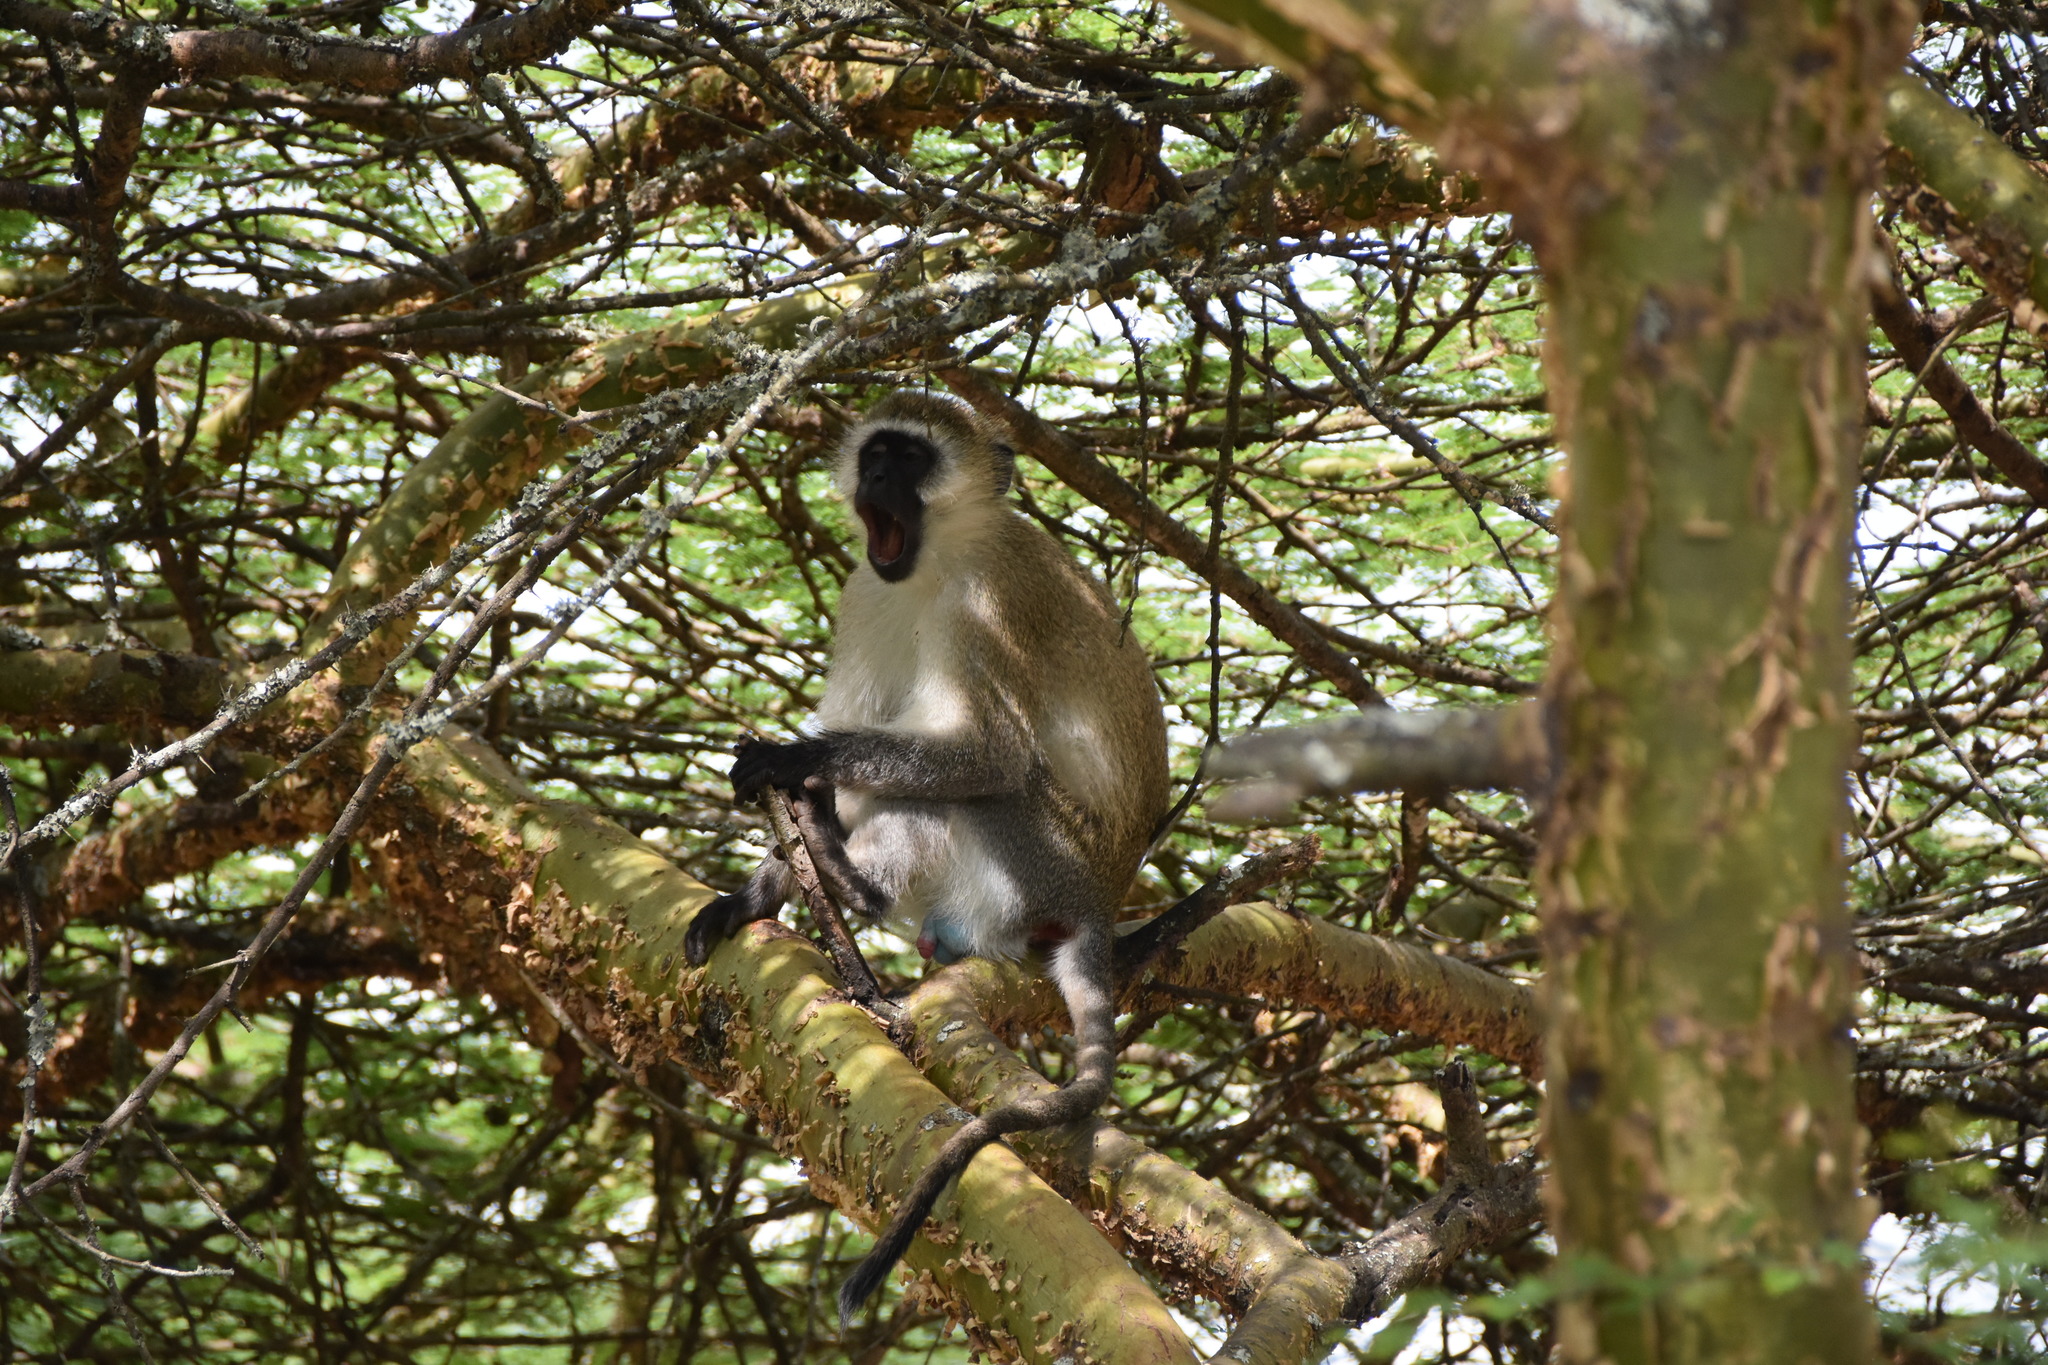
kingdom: Animalia
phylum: Chordata
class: Mammalia
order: Primates
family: Cercopithecidae
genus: Chlorocebus
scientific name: Chlorocebus pygerythrus
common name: Vervet monkey
